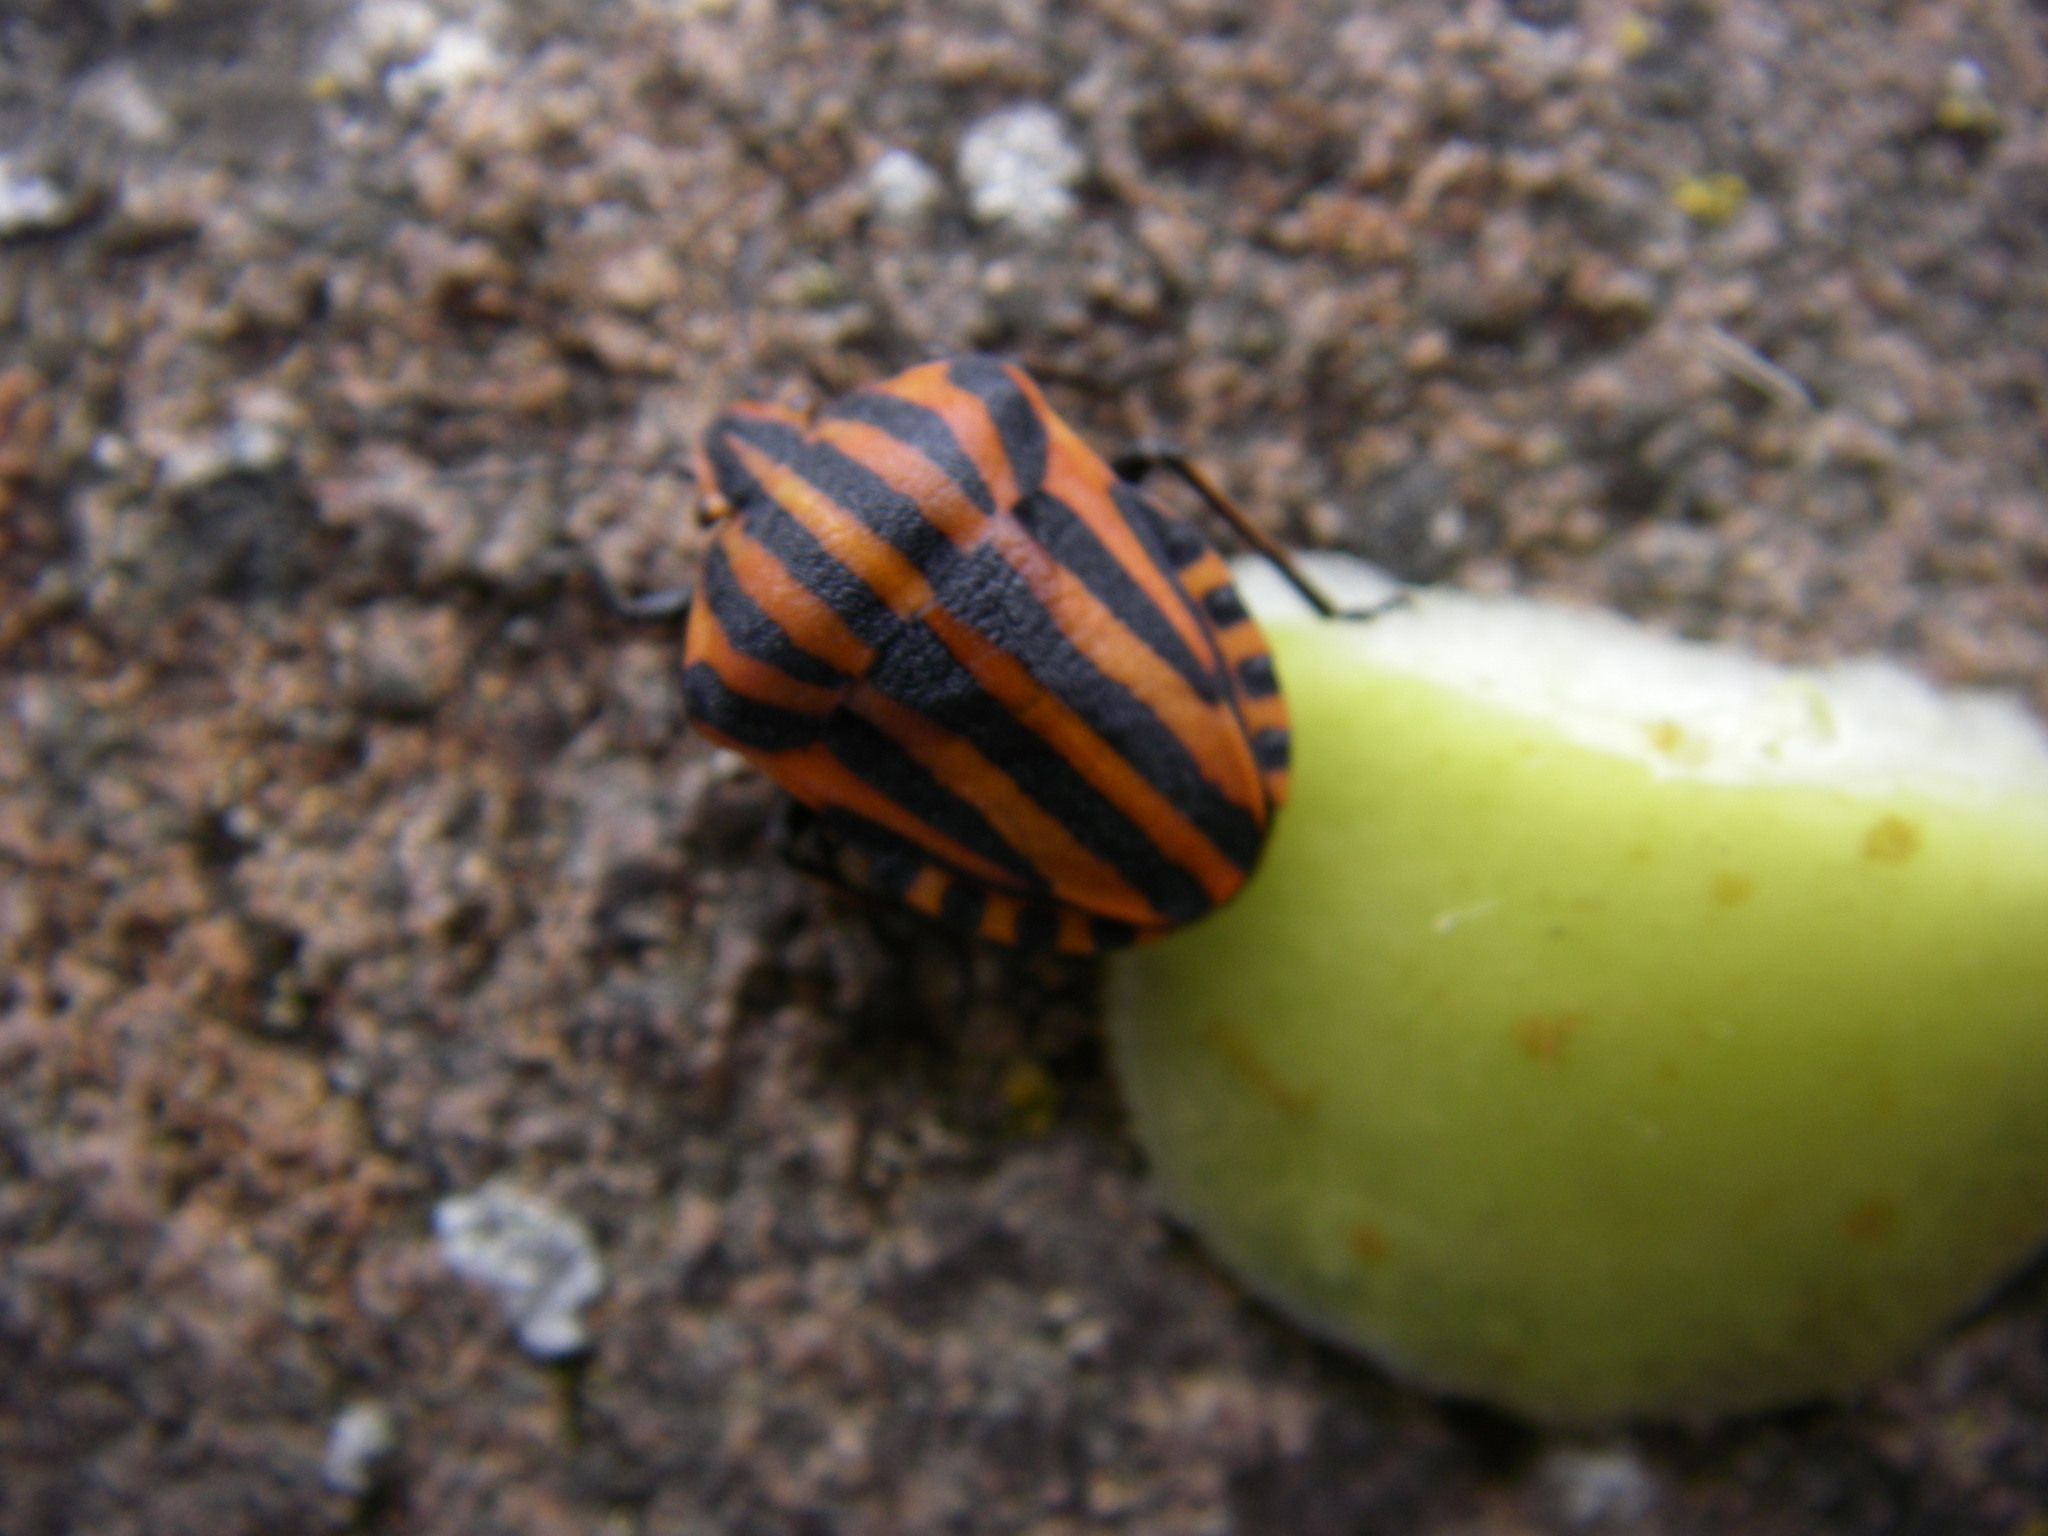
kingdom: Animalia
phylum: Arthropoda
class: Insecta
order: Hemiptera
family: Pentatomidae
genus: Graphosoma
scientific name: Graphosoma italicum
